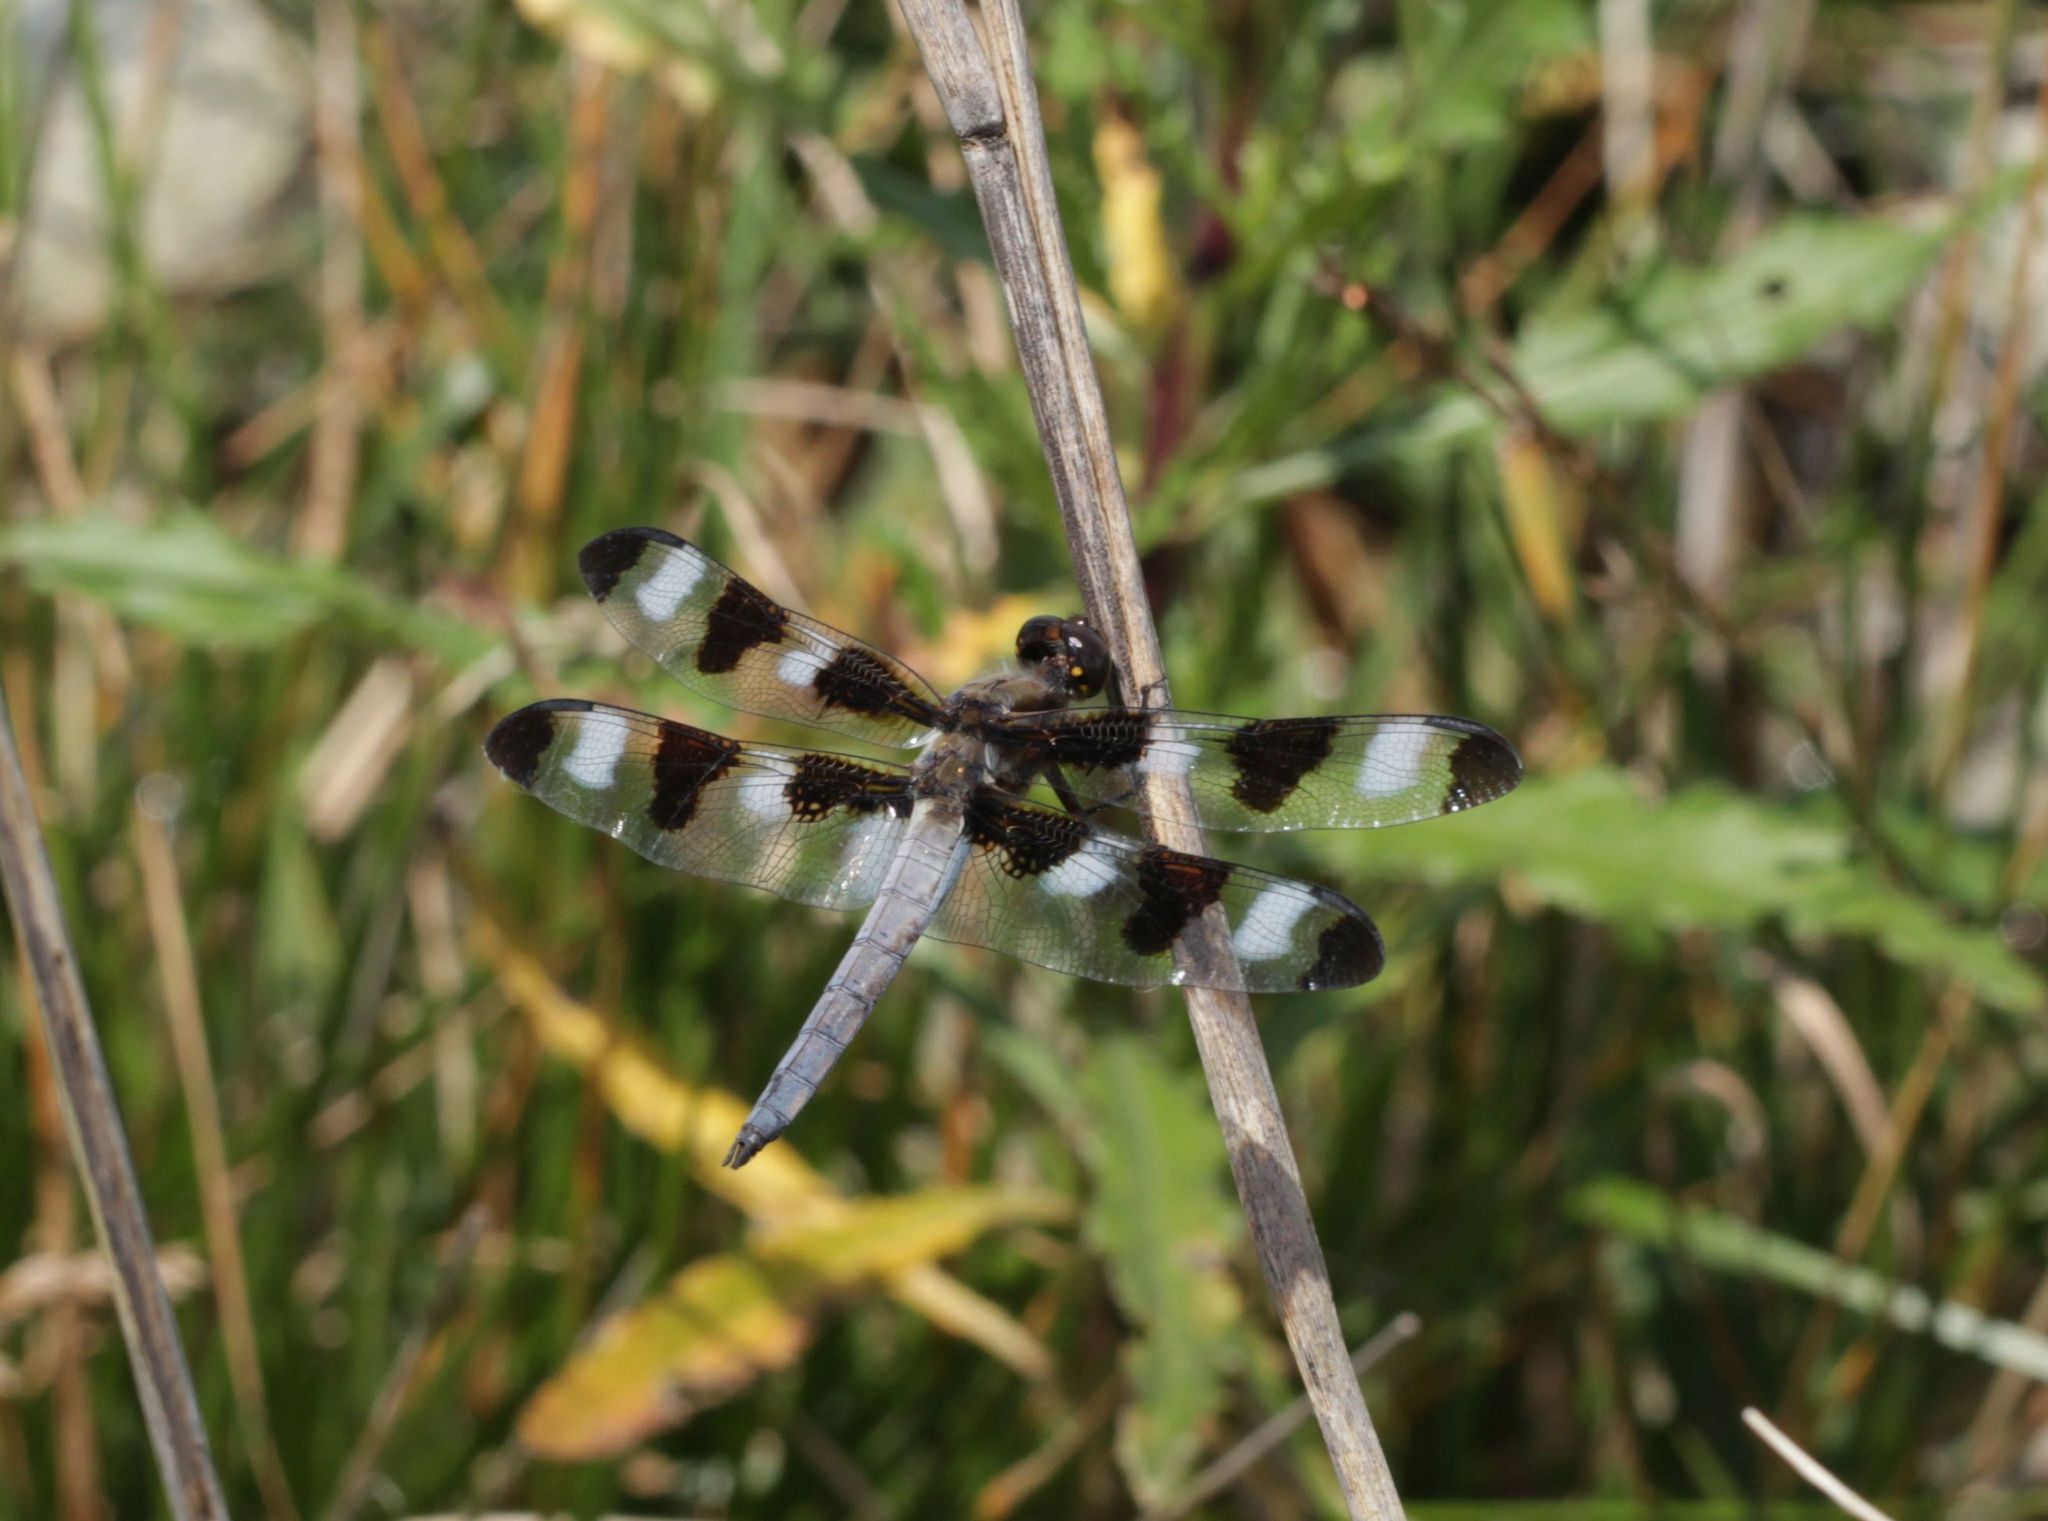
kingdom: Animalia
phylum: Arthropoda
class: Insecta
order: Odonata
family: Libellulidae
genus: Libellula
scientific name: Libellula pulchella
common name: Twelve-spotted skimmer
